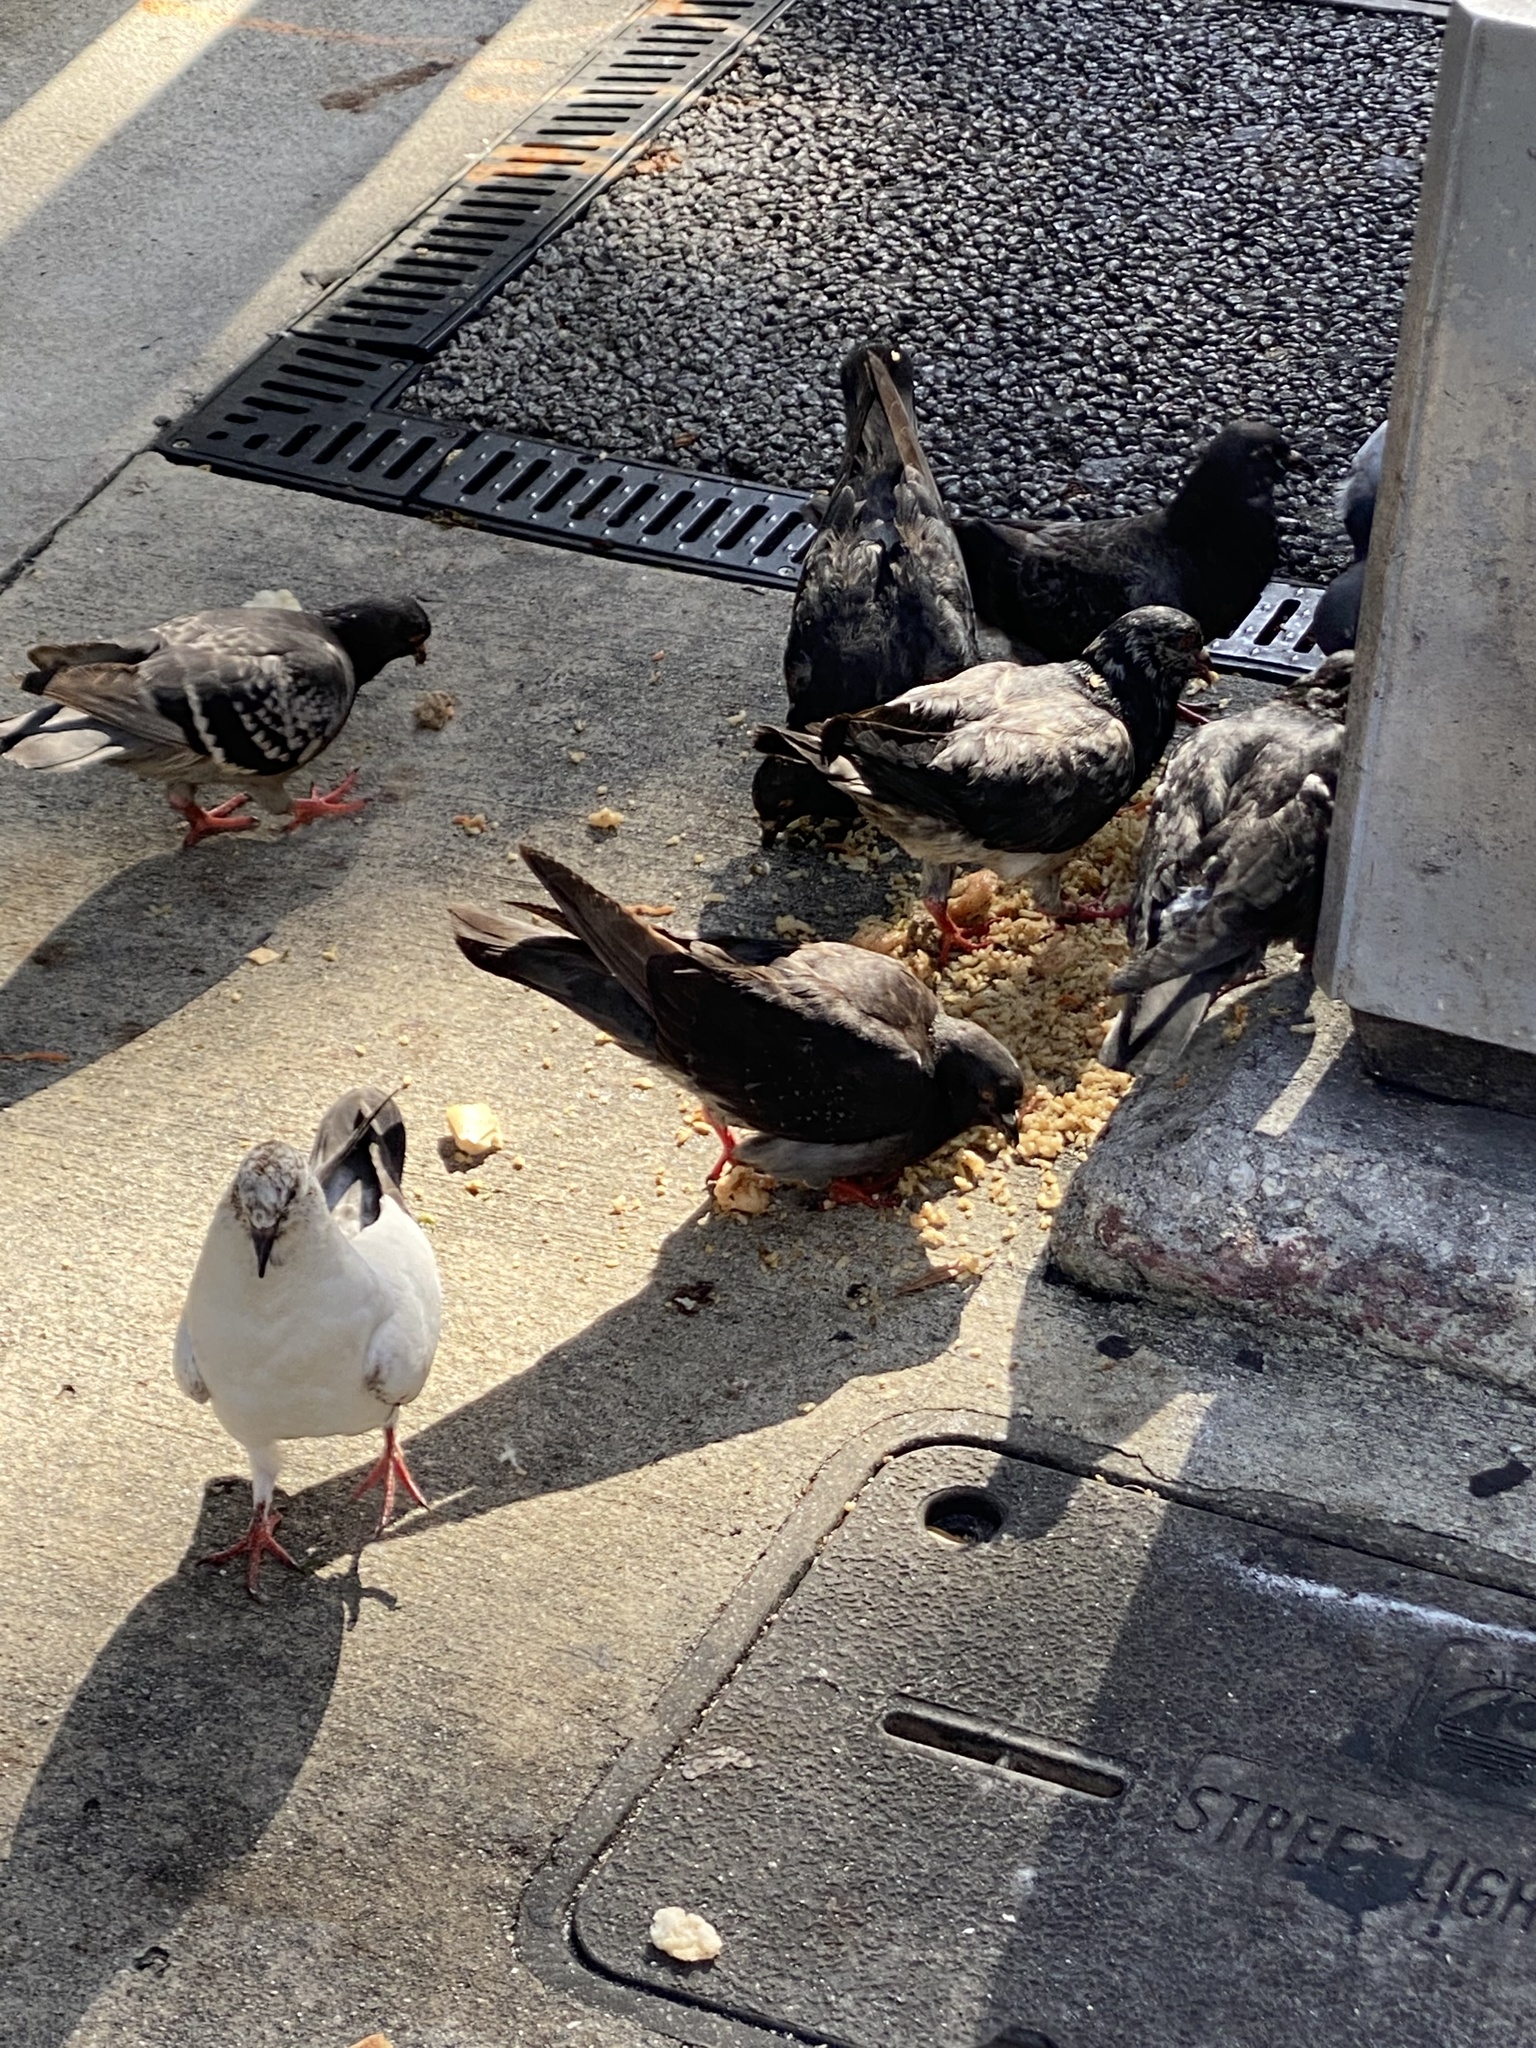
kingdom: Animalia
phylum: Chordata
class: Aves
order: Columbiformes
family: Columbidae
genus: Columba
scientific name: Columba livia
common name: Rock pigeon
